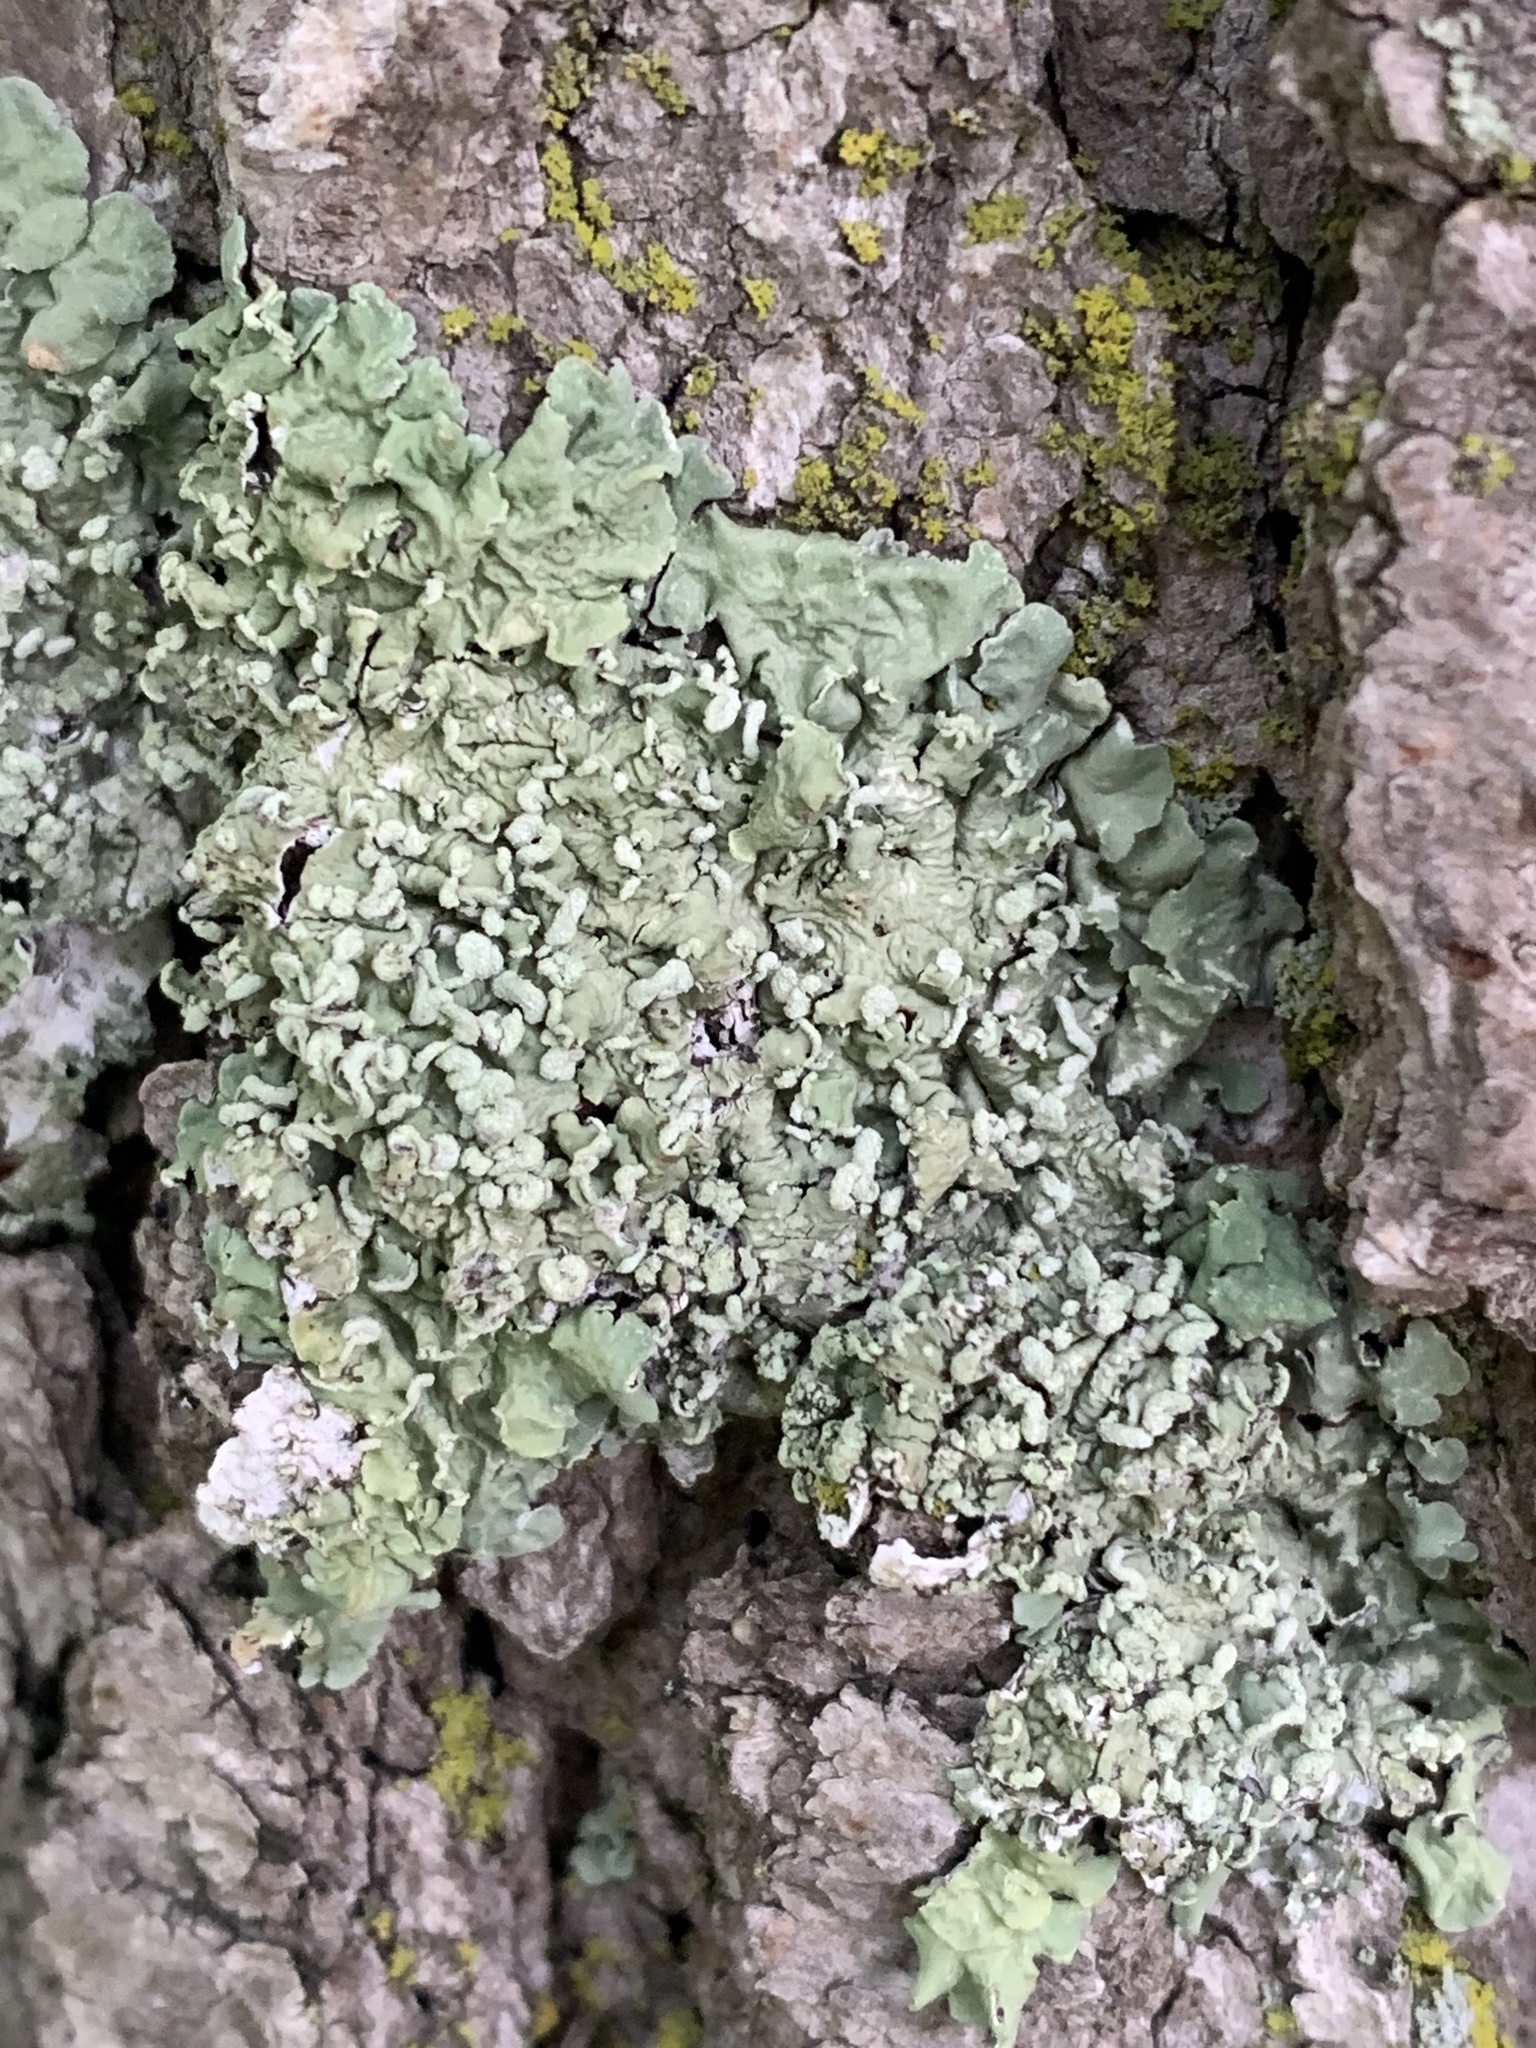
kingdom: Fungi
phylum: Ascomycota
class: Lecanoromycetes
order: Lecanorales
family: Parmeliaceae
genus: Flavopunctelia
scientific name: Flavopunctelia soredica
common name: Powder-edged speckled greenshield
